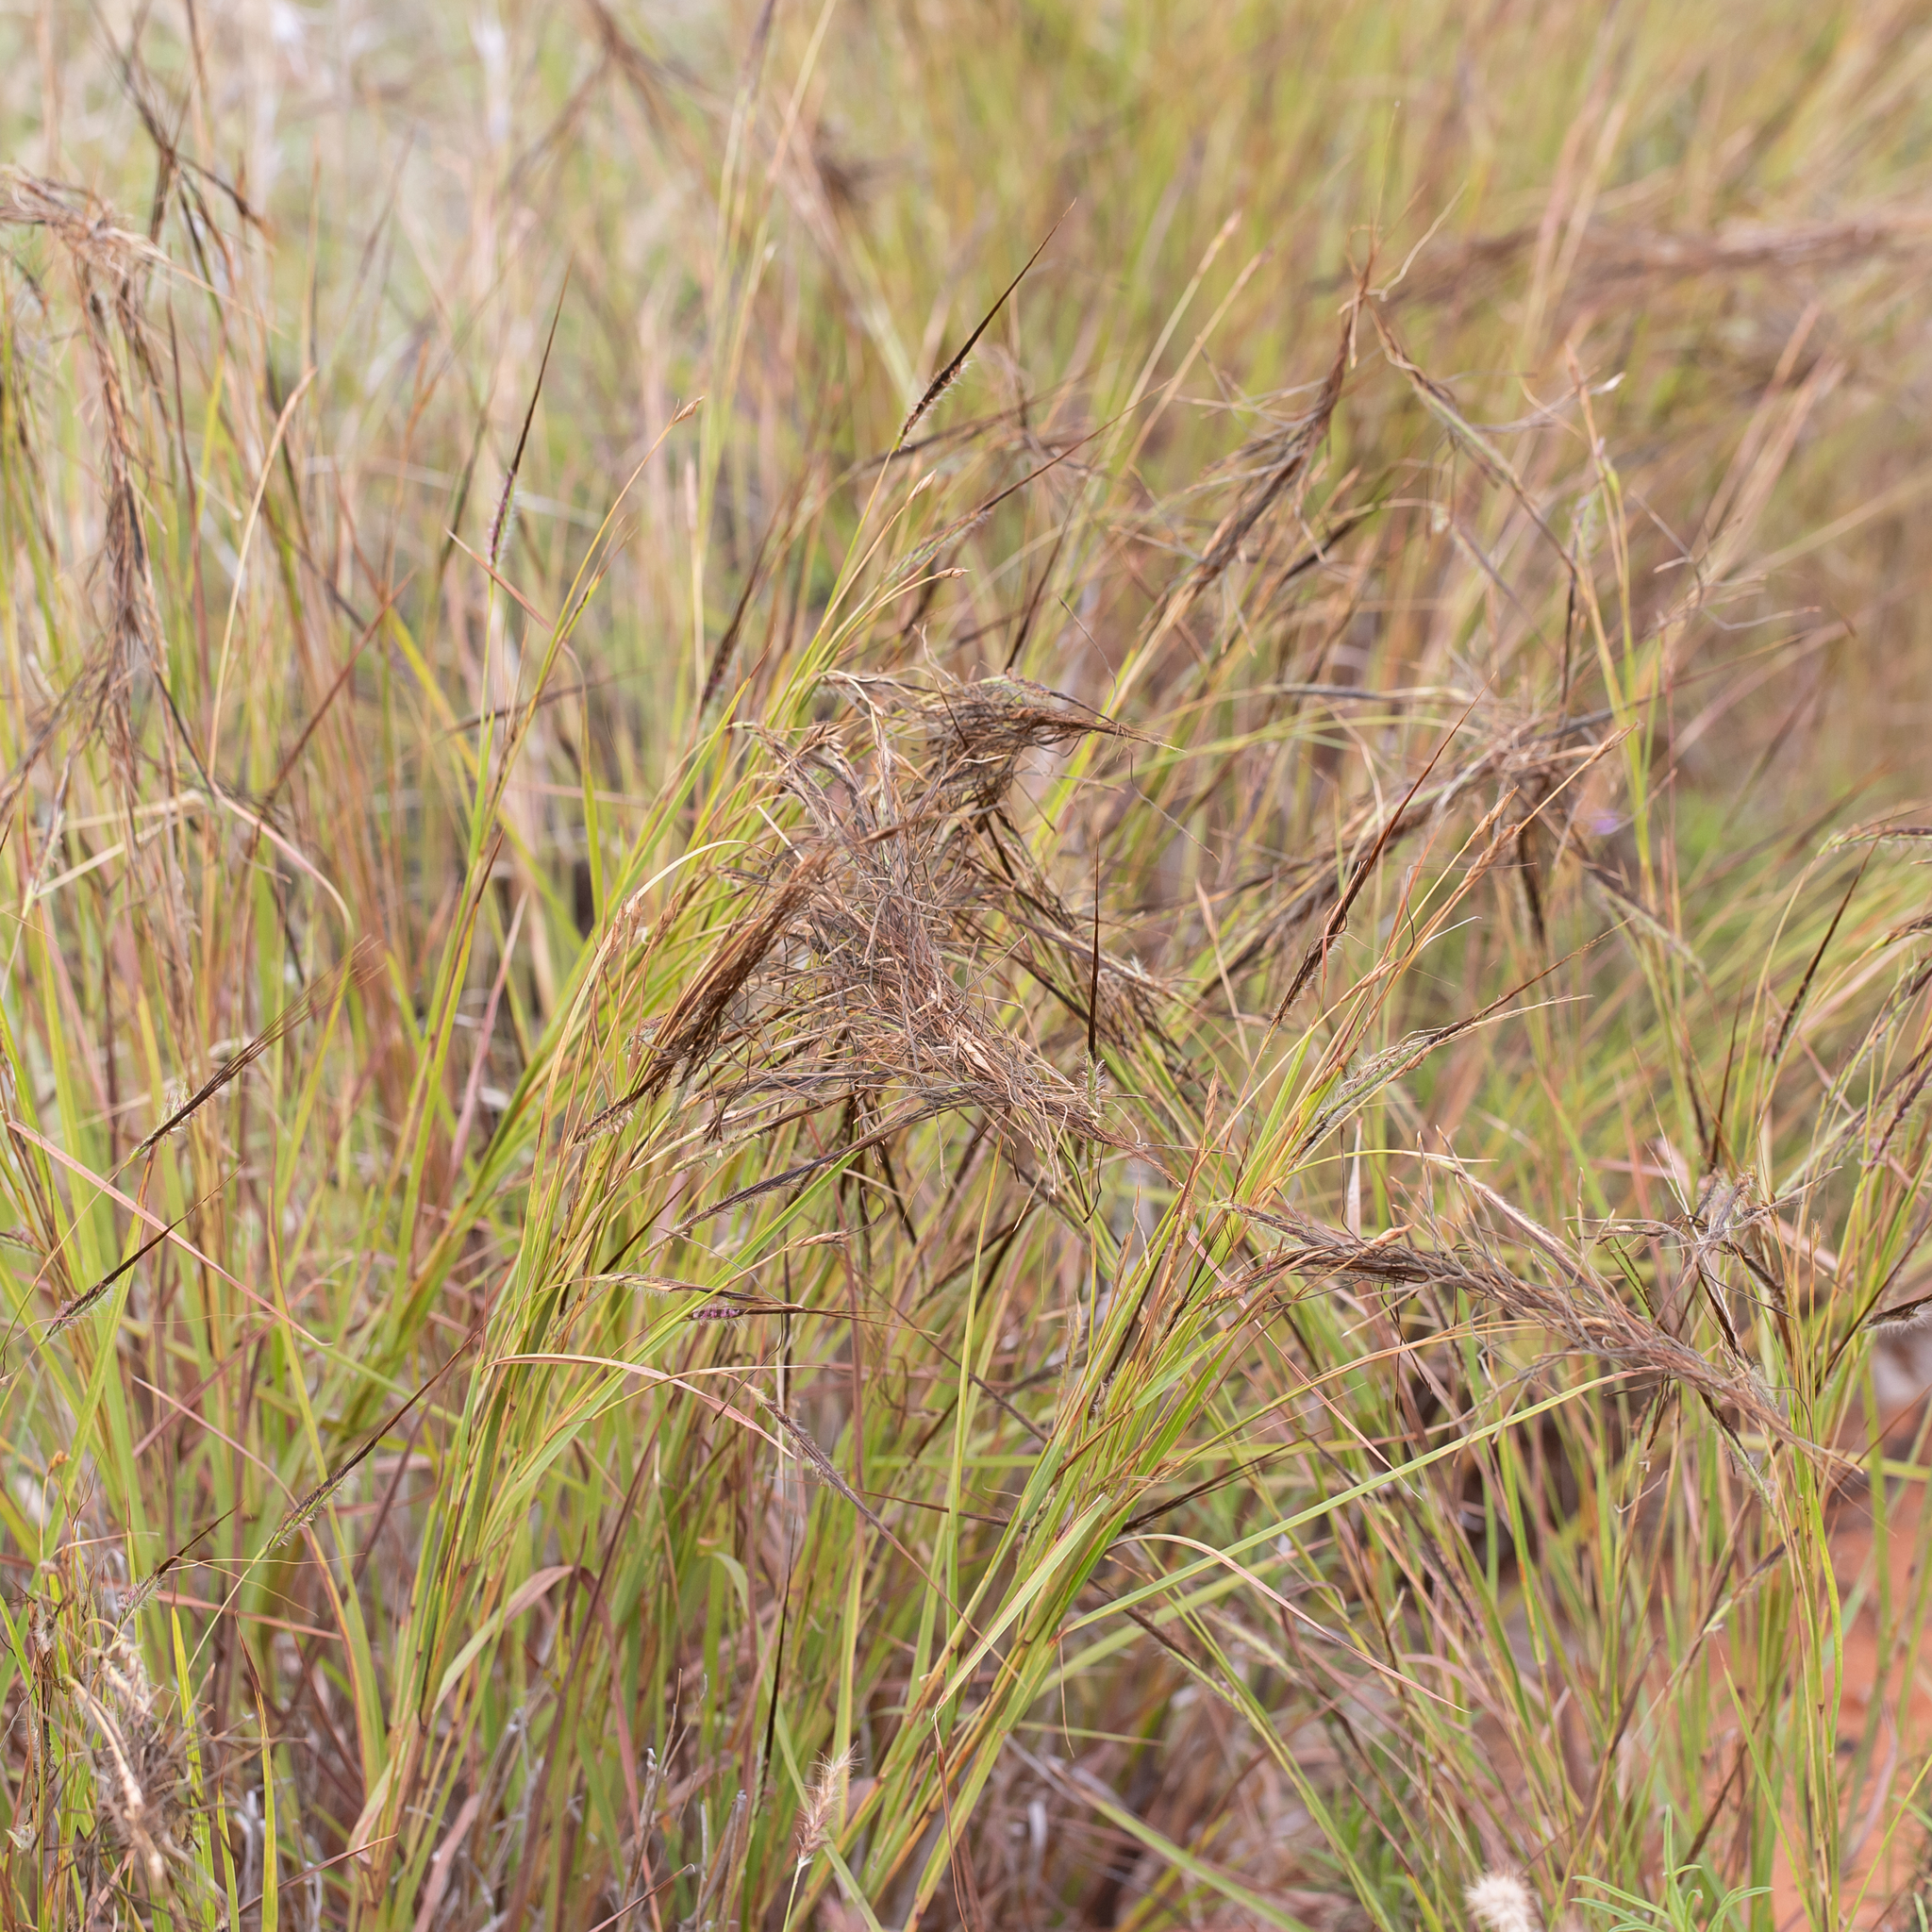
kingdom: Plantae
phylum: Tracheophyta
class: Liliopsida
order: Poales
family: Poaceae
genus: Heteropogon
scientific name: Heteropogon contortus
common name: Tanglehead
